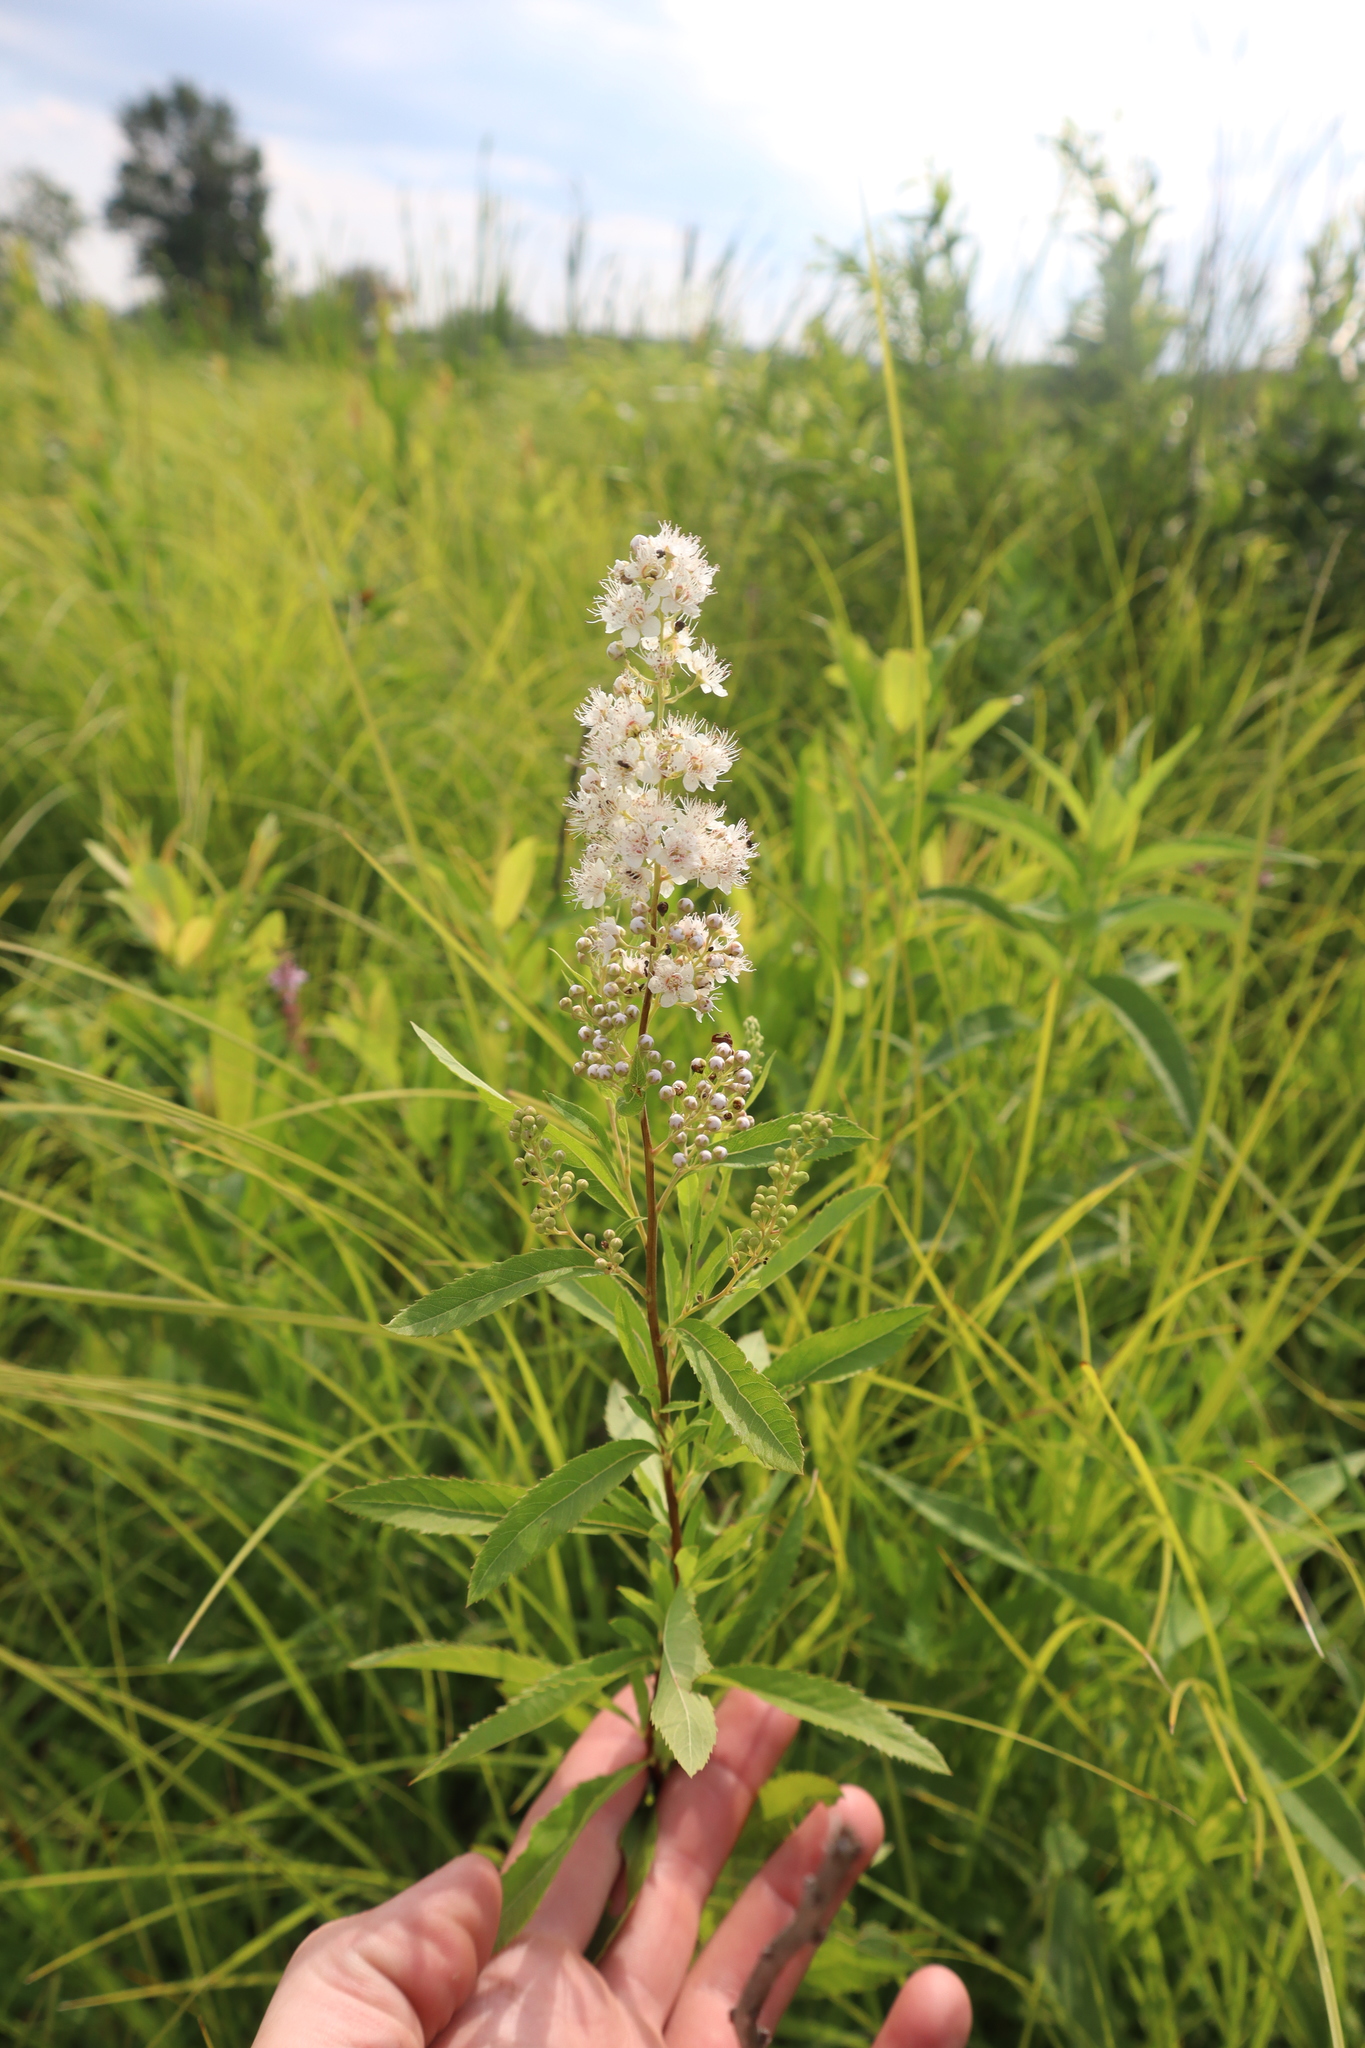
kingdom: Plantae
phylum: Tracheophyta
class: Magnoliopsida
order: Rosales
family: Rosaceae
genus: Spiraea
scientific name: Spiraea alba
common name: Pale bridewort
